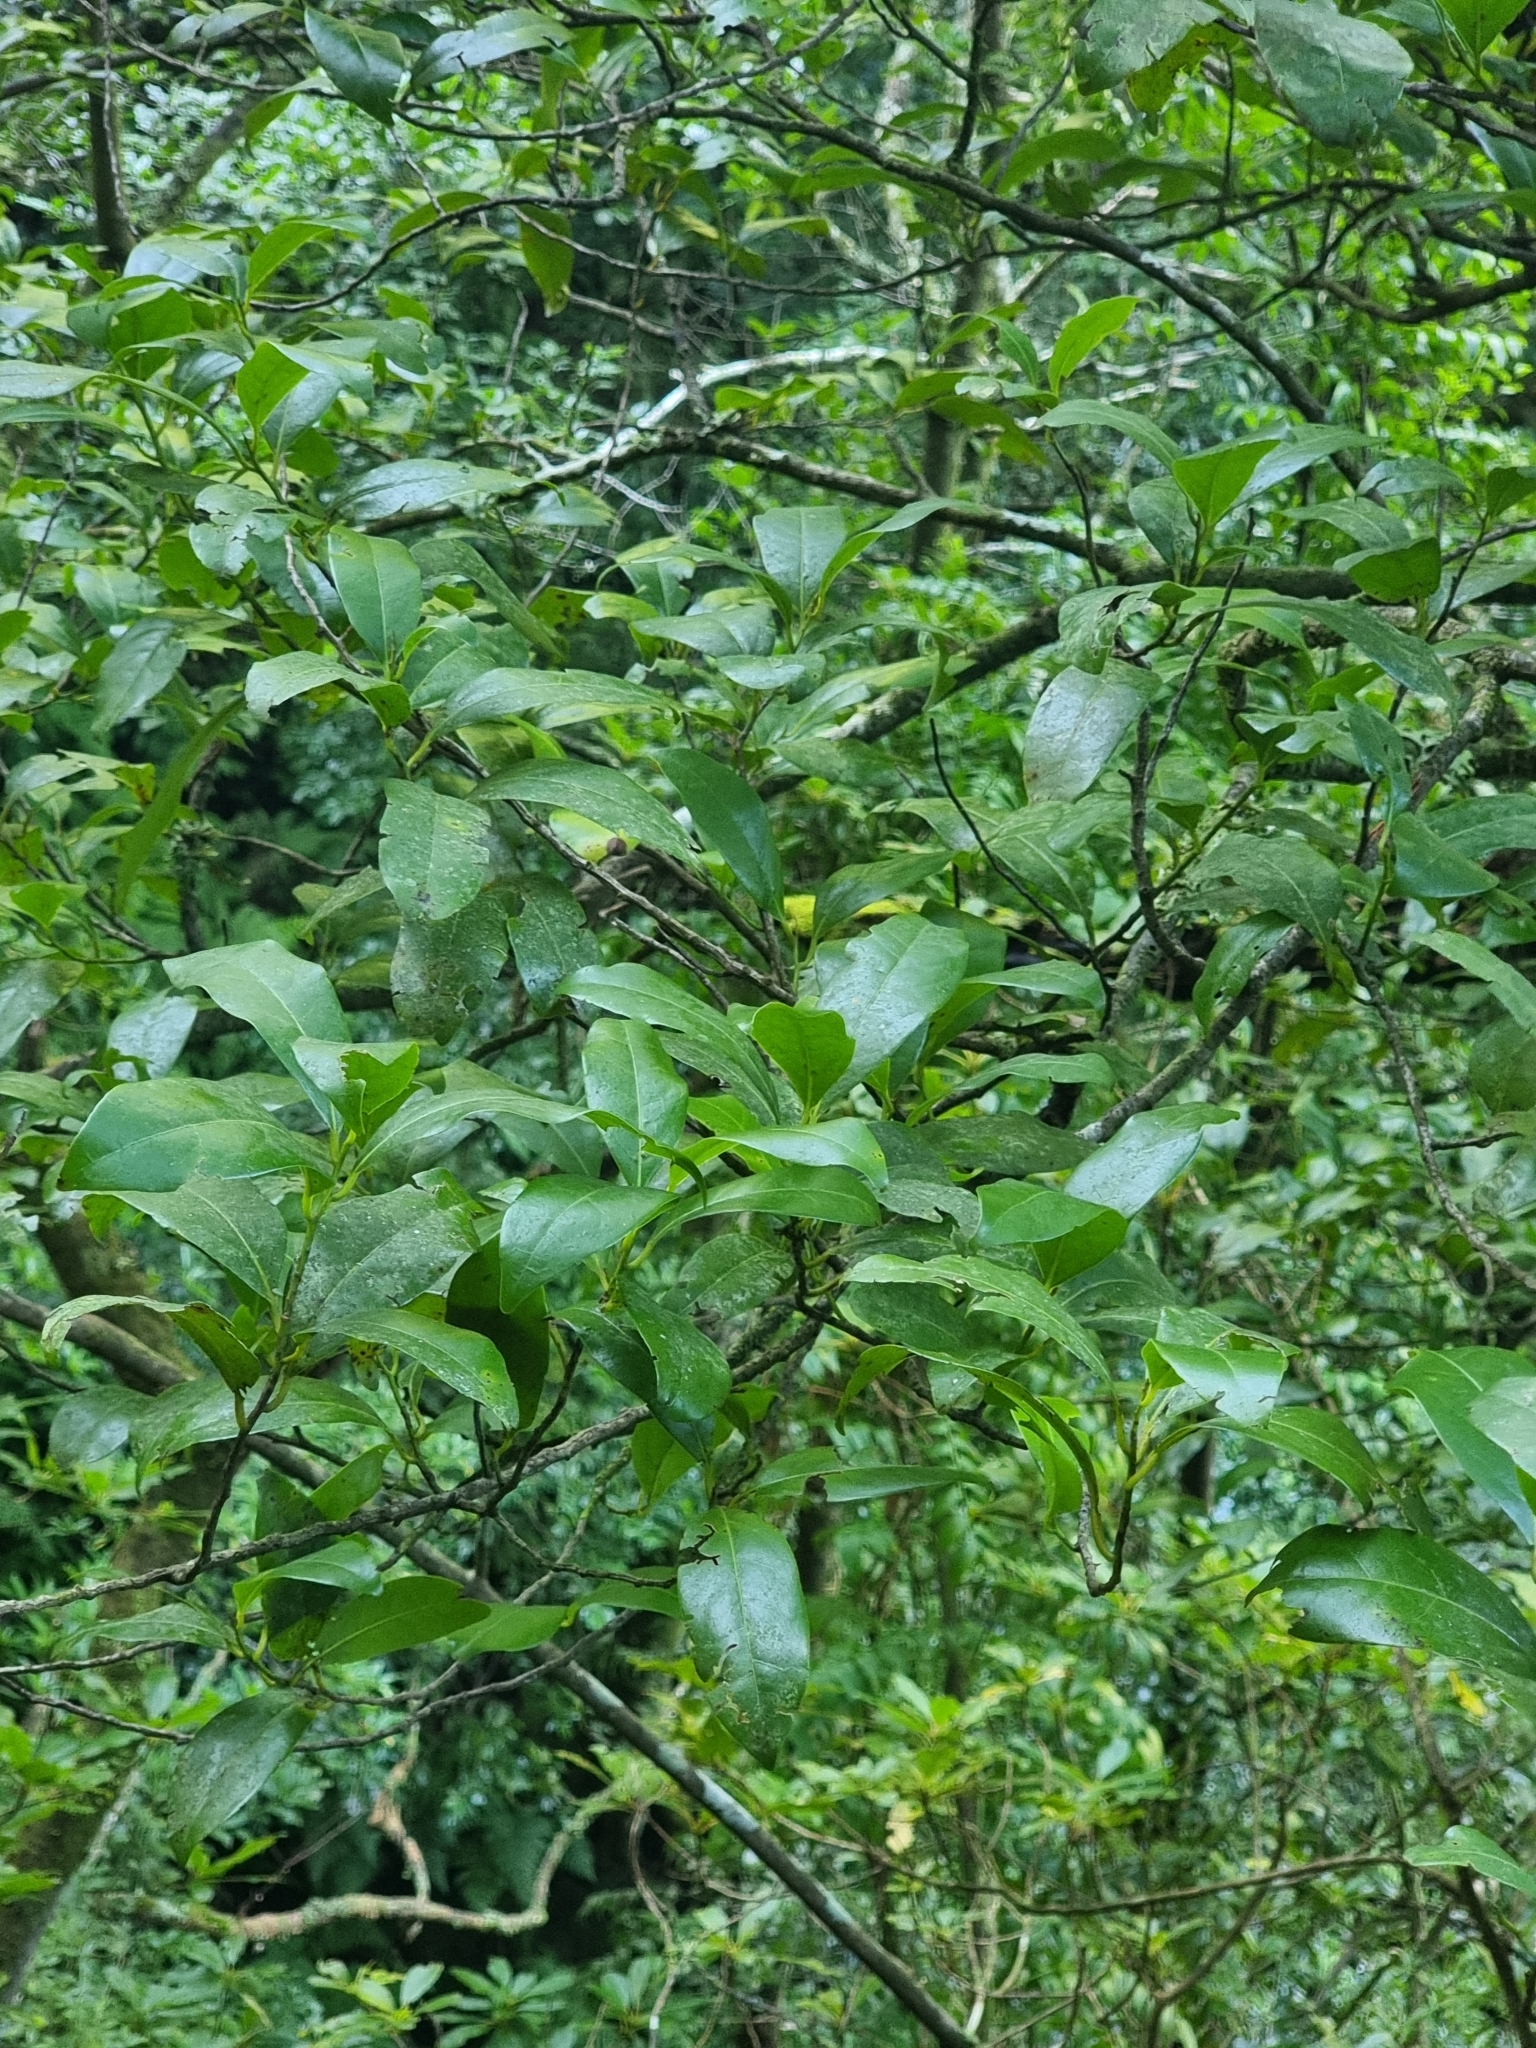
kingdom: Plantae
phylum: Tracheophyta
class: Magnoliopsida
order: Laurales
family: Lauraceae
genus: Mespilodaphne
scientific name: Mespilodaphne foetens
